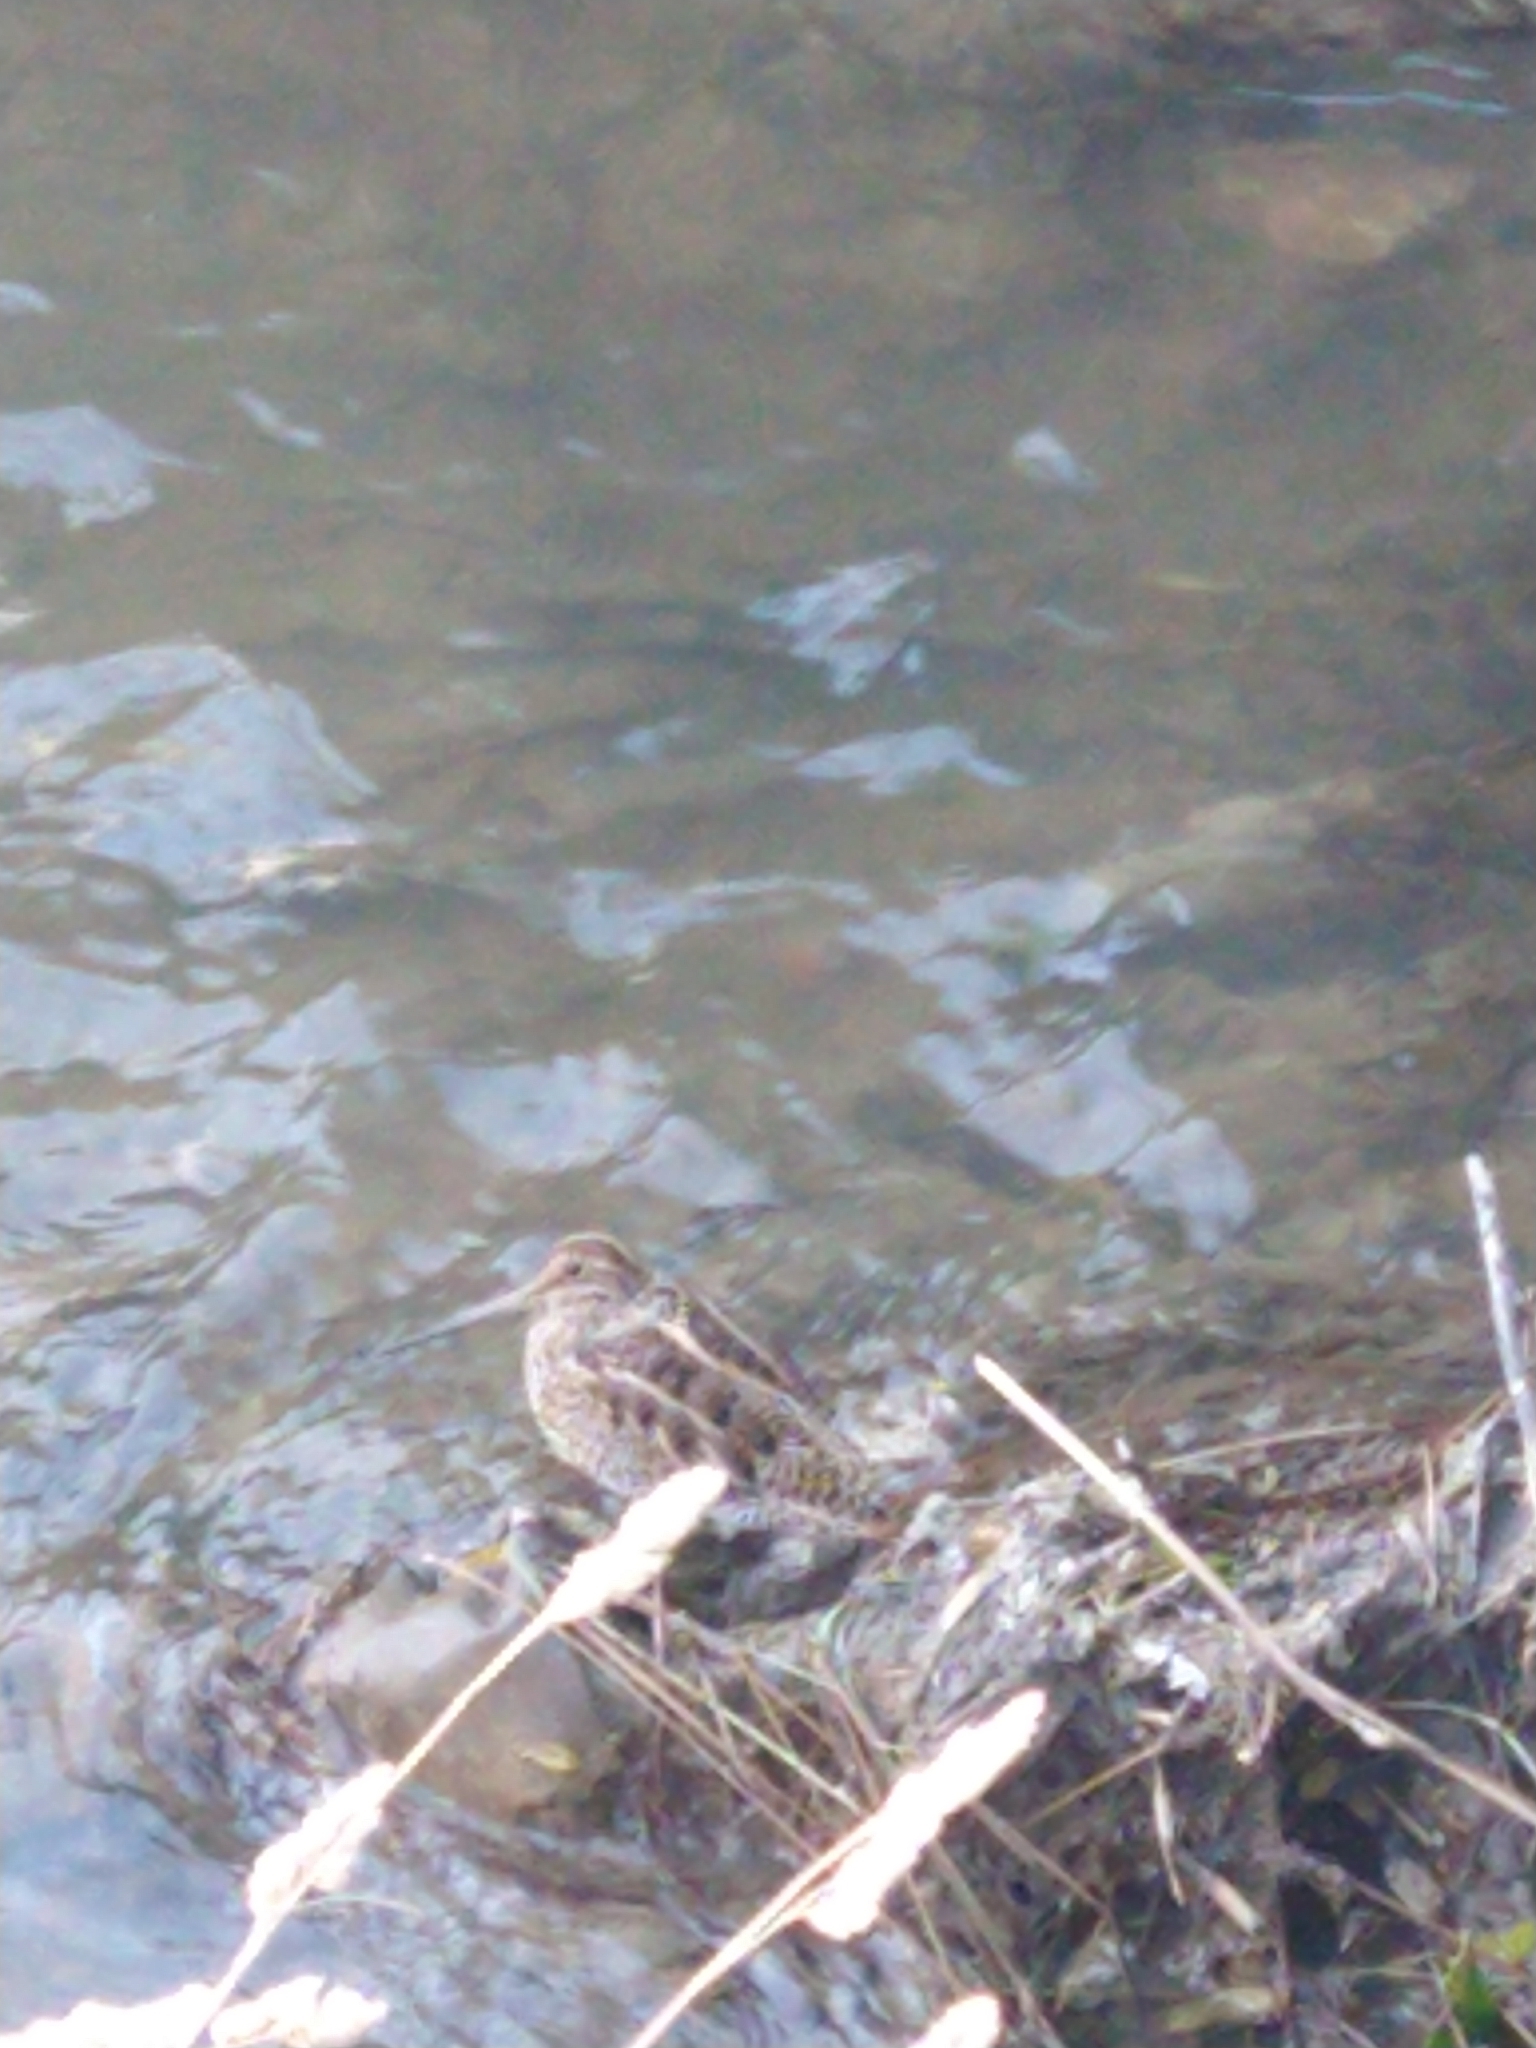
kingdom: Animalia
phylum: Chordata
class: Aves
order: Charadriiformes
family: Scolopacidae
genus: Gallinago
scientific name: Gallinago magellanica
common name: Magellanic snipe
